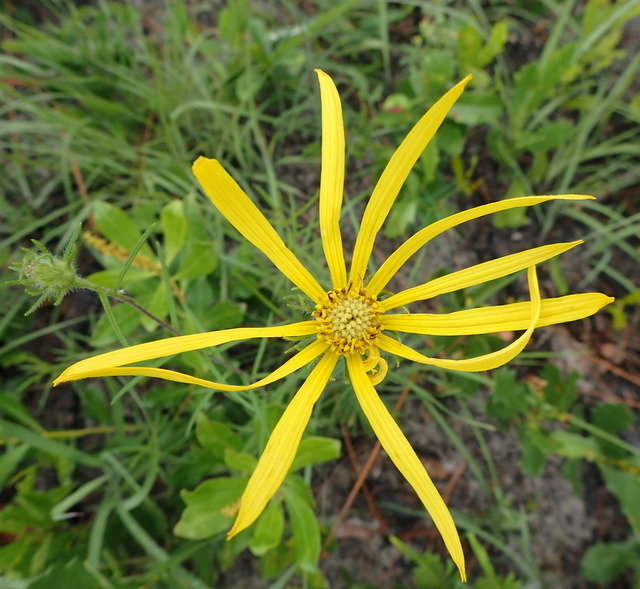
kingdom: Plantae
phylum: Tracheophyta
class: Magnoliopsida
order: Asterales
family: Asteraceae
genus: Phoebanthus
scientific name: Phoebanthus tenuifolia
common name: Pineland false sunflower
